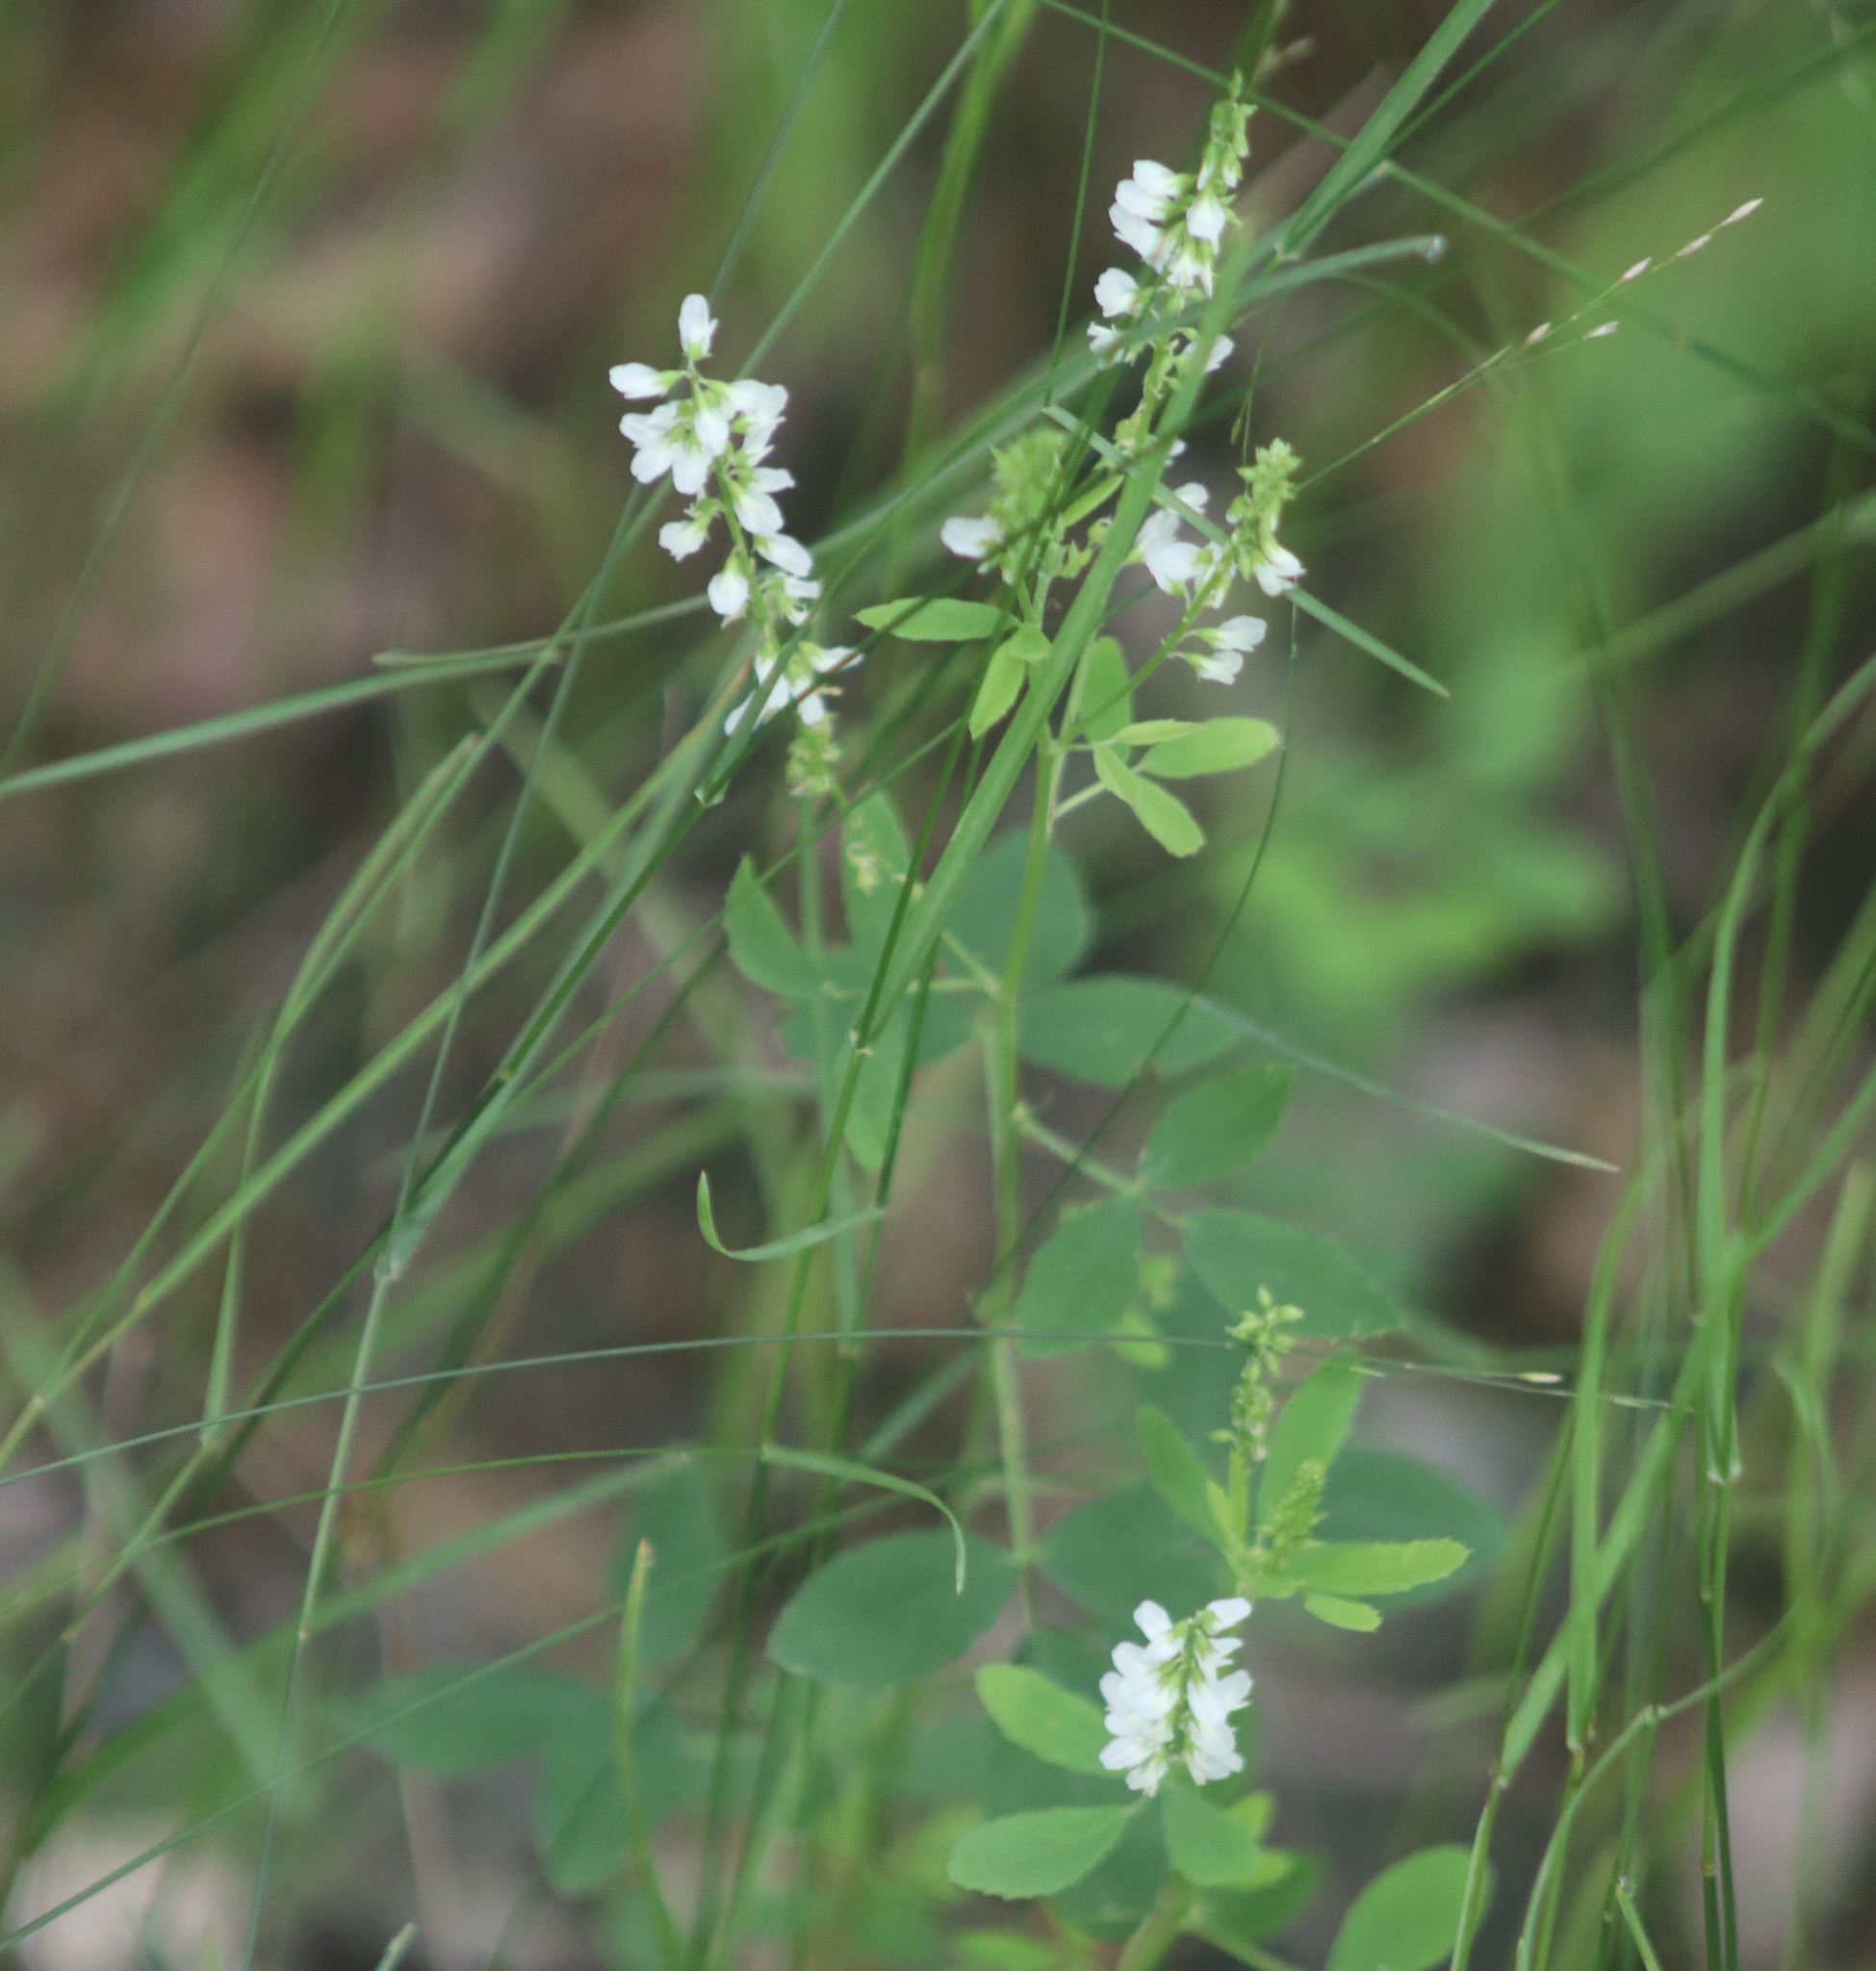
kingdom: Plantae
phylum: Tracheophyta
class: Magnoliopsida
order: Fabales
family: Fabaceae
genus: Melilotus
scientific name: Melilotus albus
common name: White melilot
